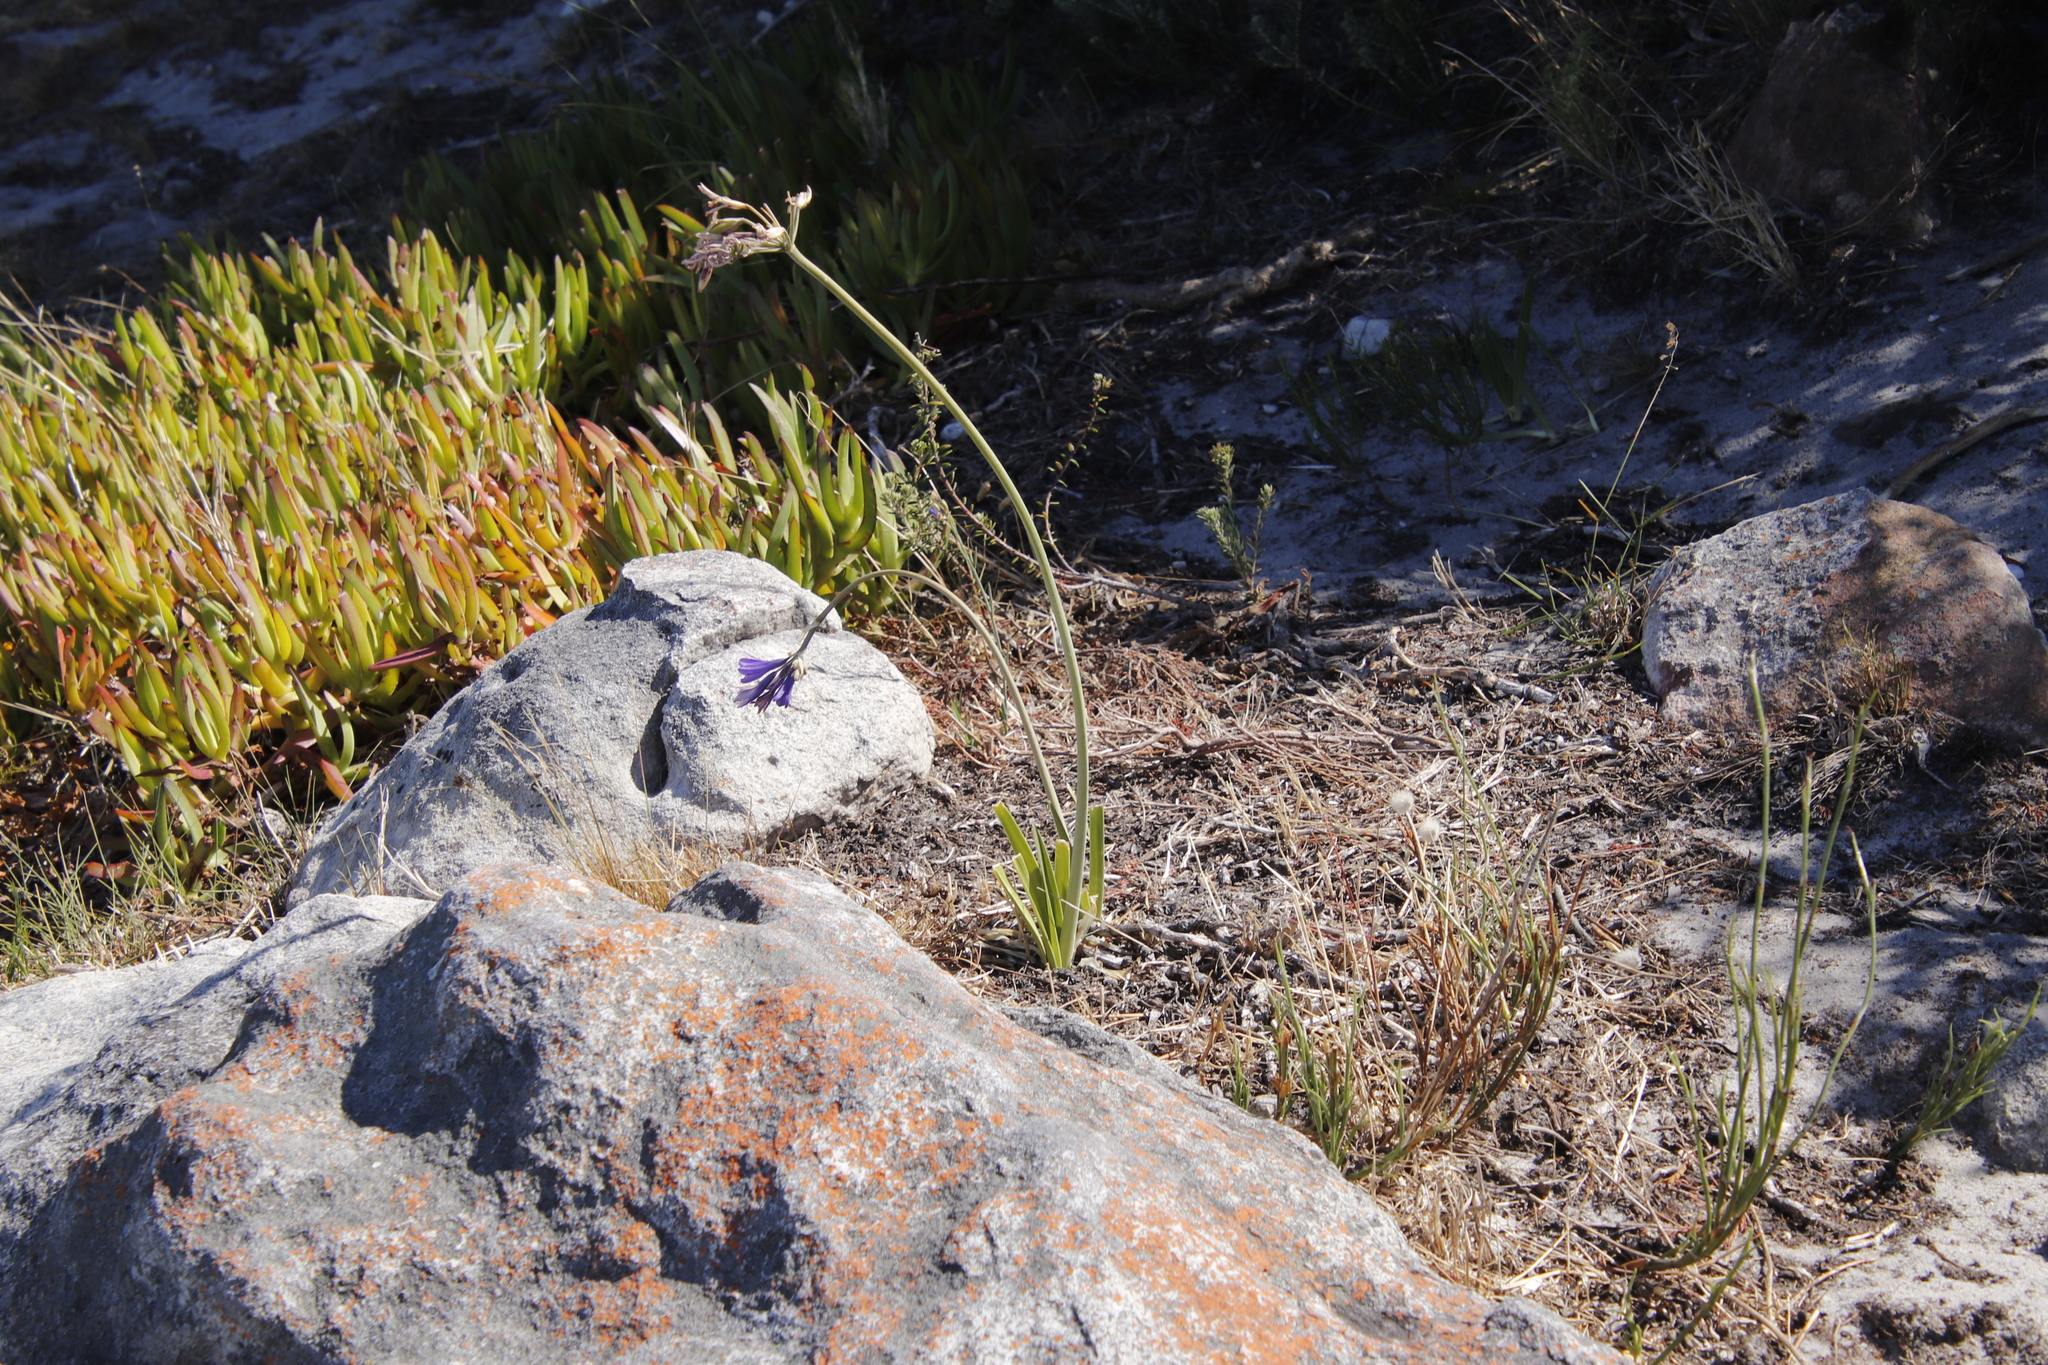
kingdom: Plantae
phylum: Tracheophyta
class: Liliopsida
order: Asparagales
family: Amaryllidaceae
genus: Agapanthus
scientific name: Agapanthus africanus
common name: Lily-of-the-nile
